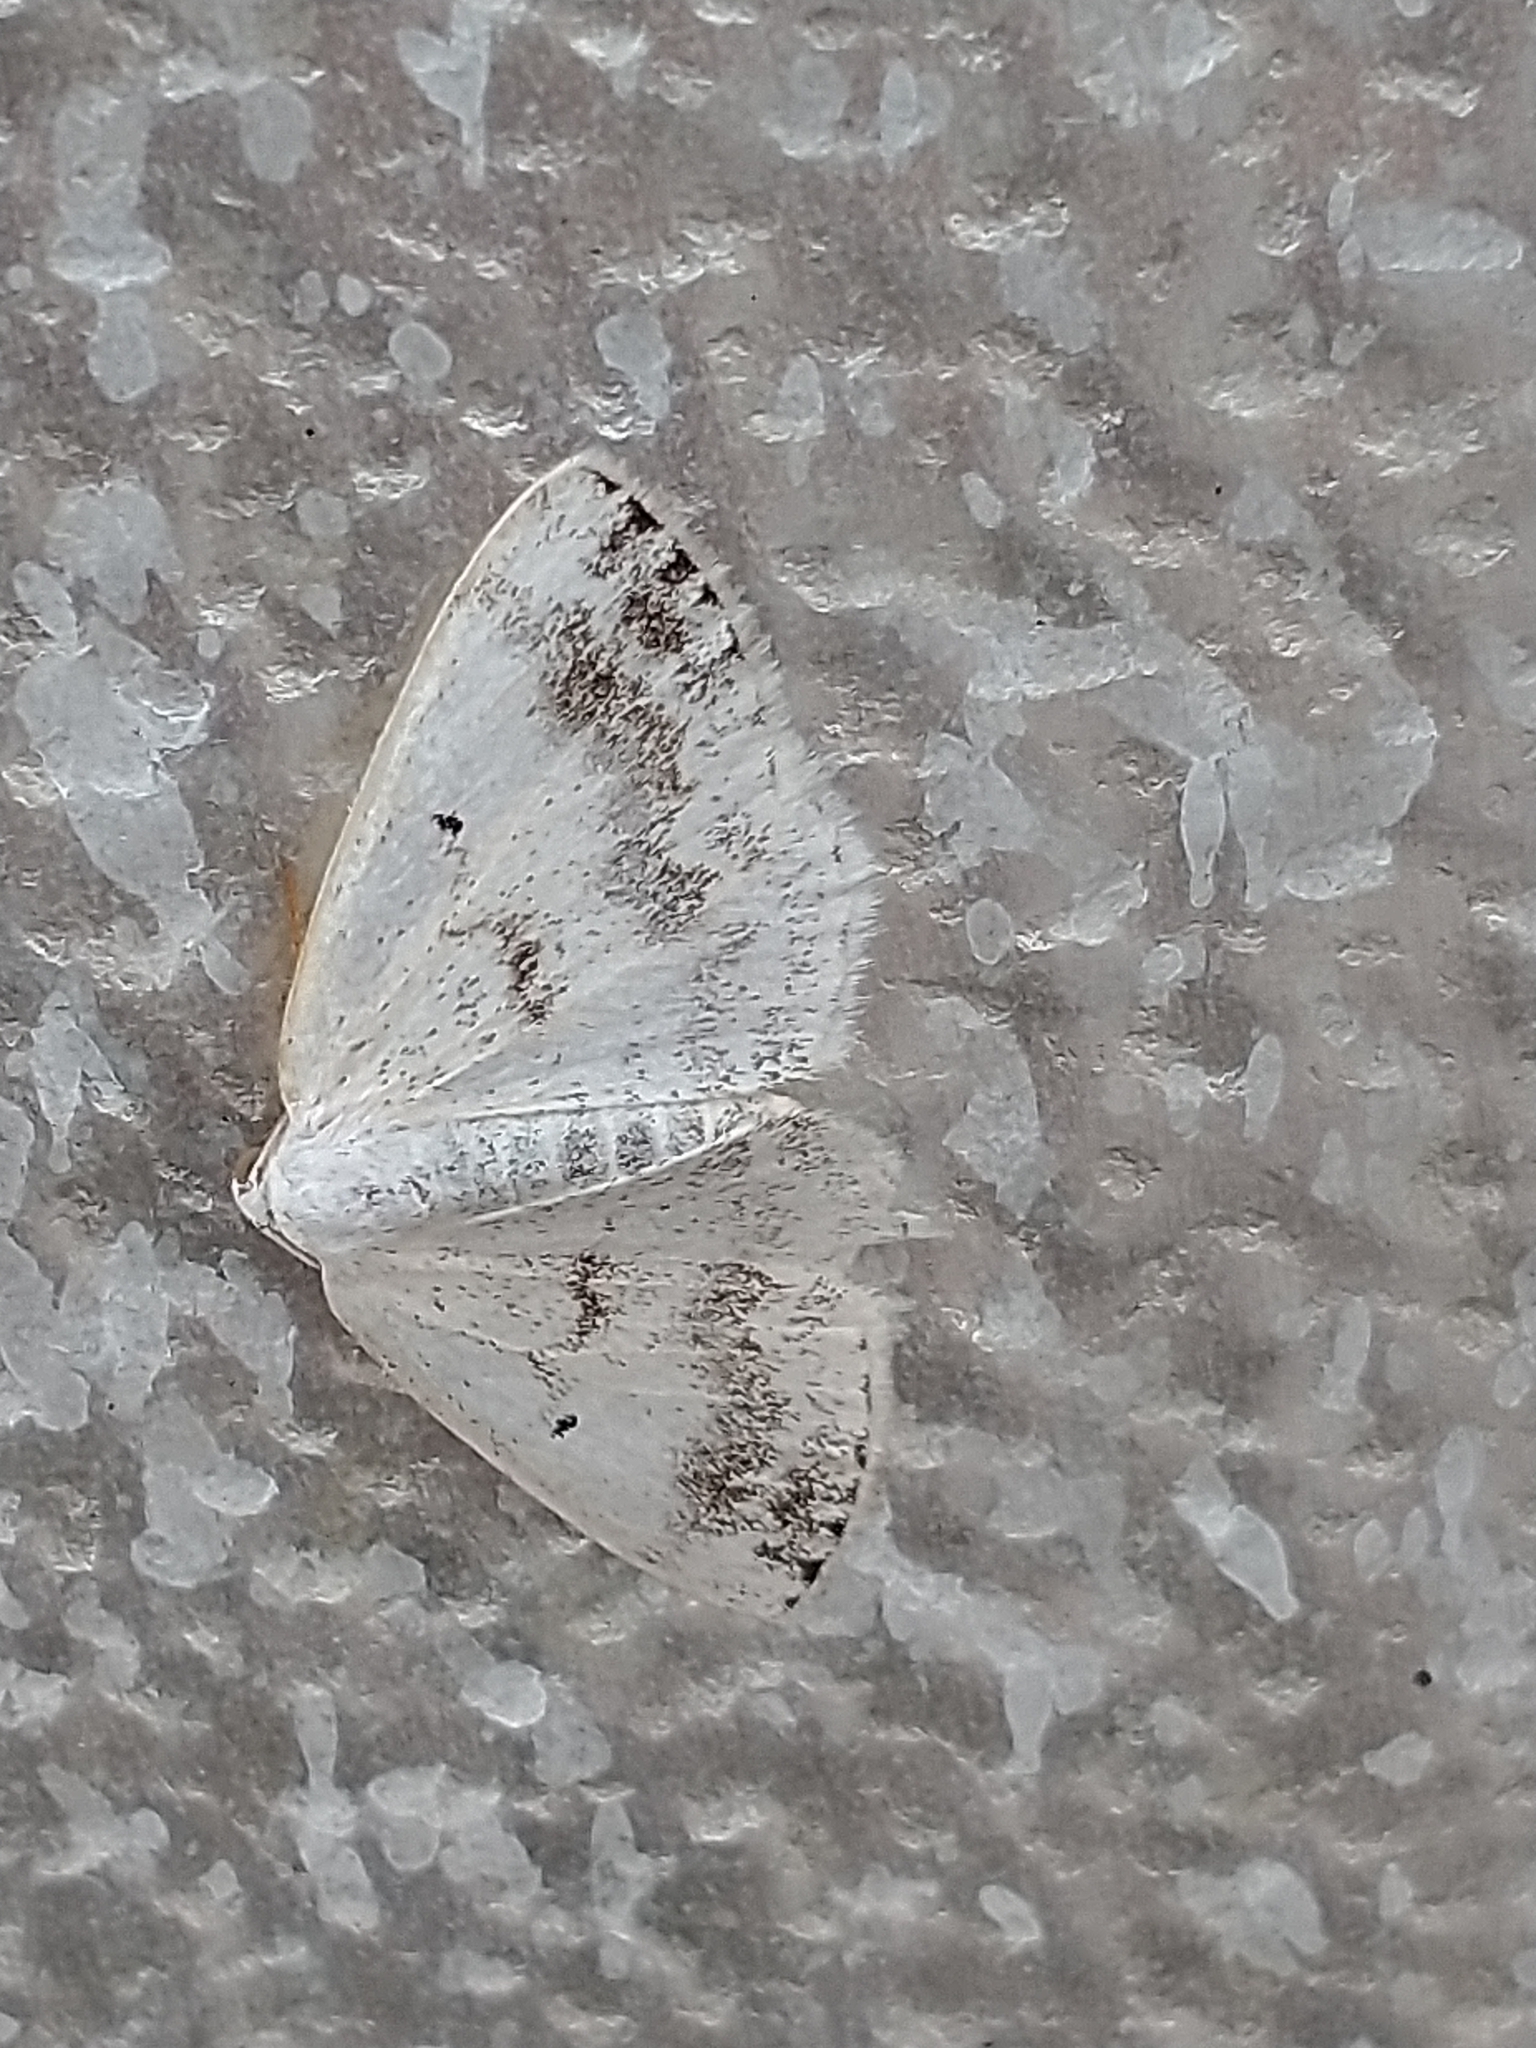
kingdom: Animalia
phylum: Arthropoda
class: Insecta
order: Lepidoptera
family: Geometridae
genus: Lomographa
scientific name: Lomographa temerata
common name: Clouded silver
